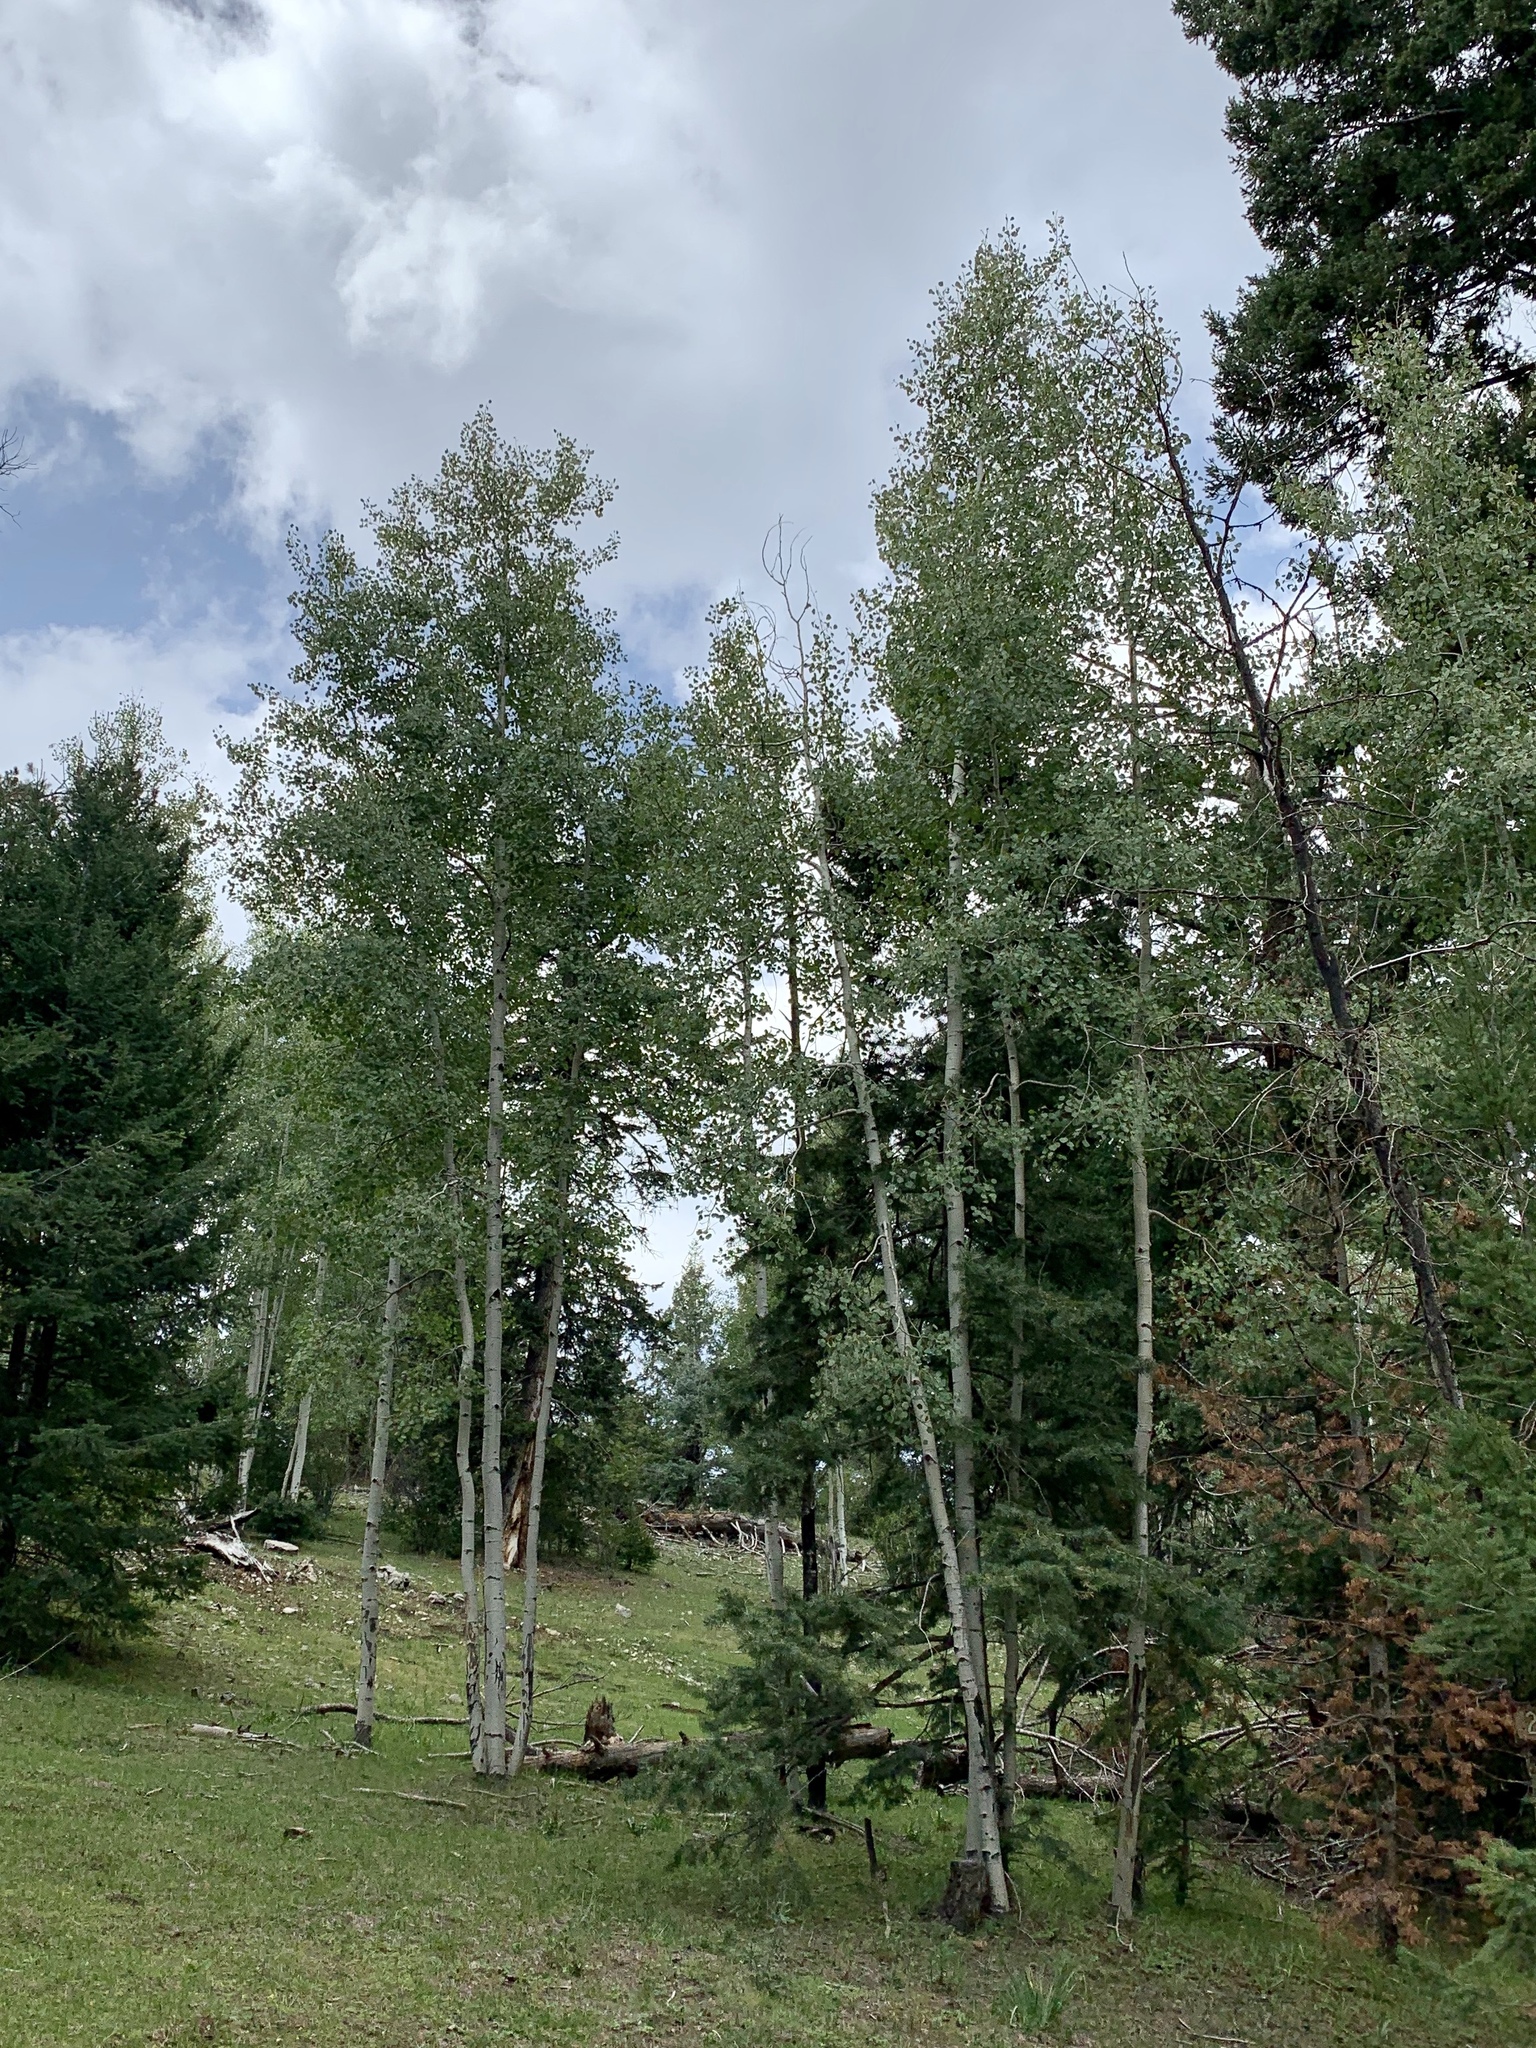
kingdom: Plantae
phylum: Tracheophyta
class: Magnoliopsida
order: Malpighiales
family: Salicaceae
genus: Populus
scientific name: Populus tremuloides
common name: Quaking aspen
